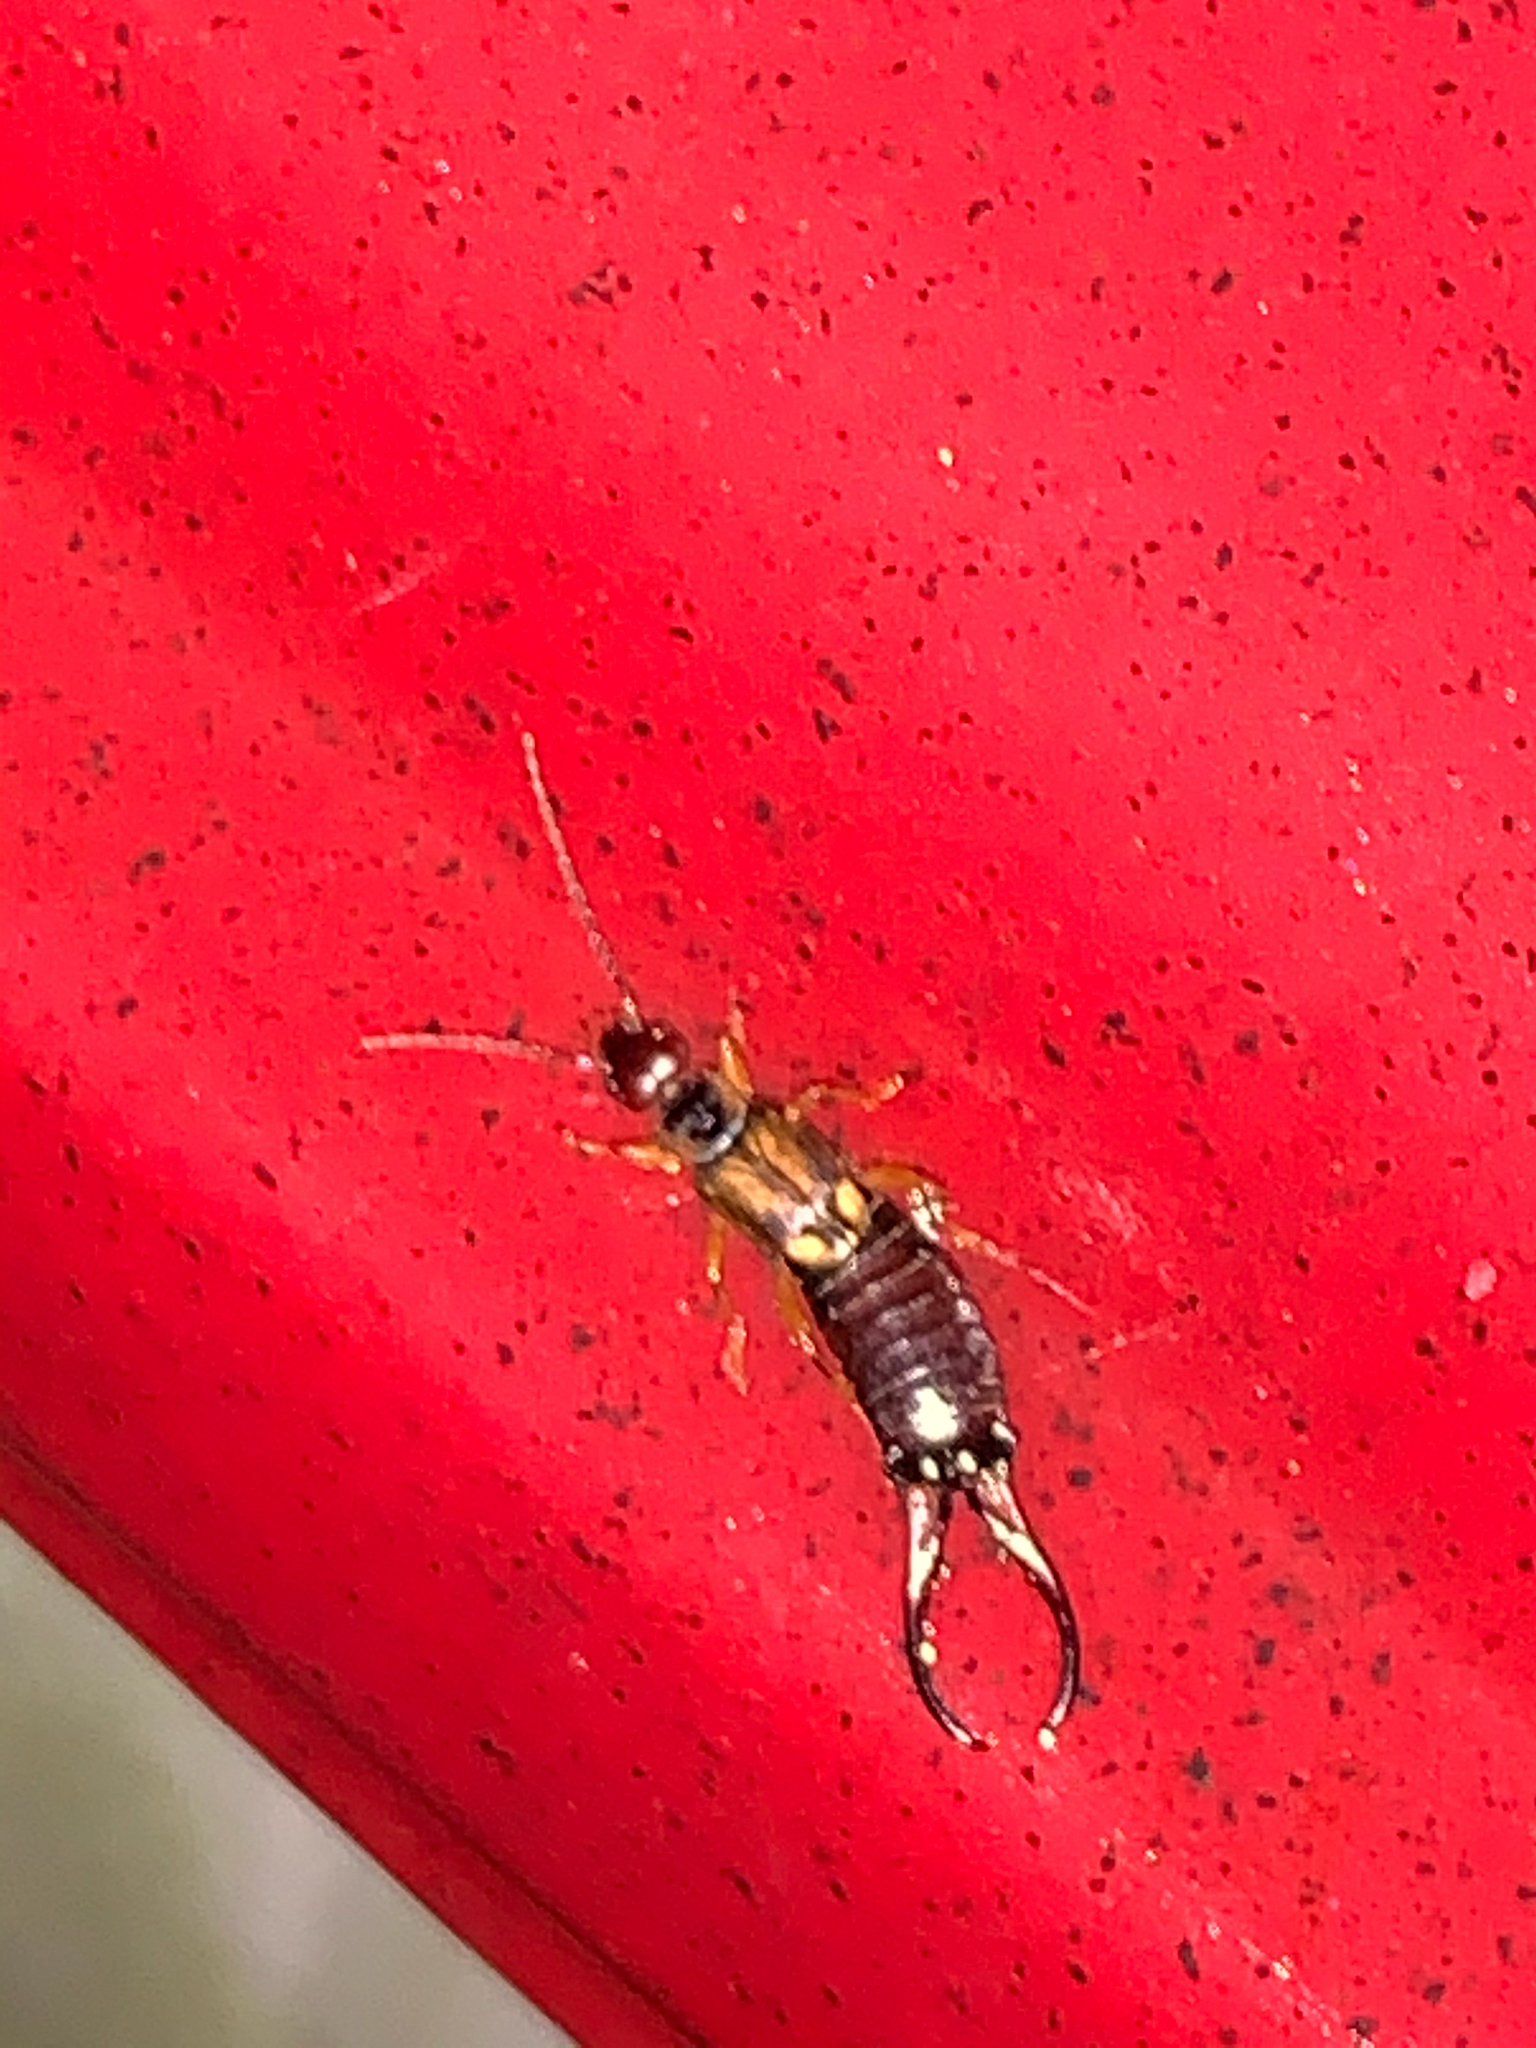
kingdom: Animalia
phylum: Arthropoda
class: Insecta
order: Dermaptera
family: Forficulidae
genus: Forficula
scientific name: Forficula
